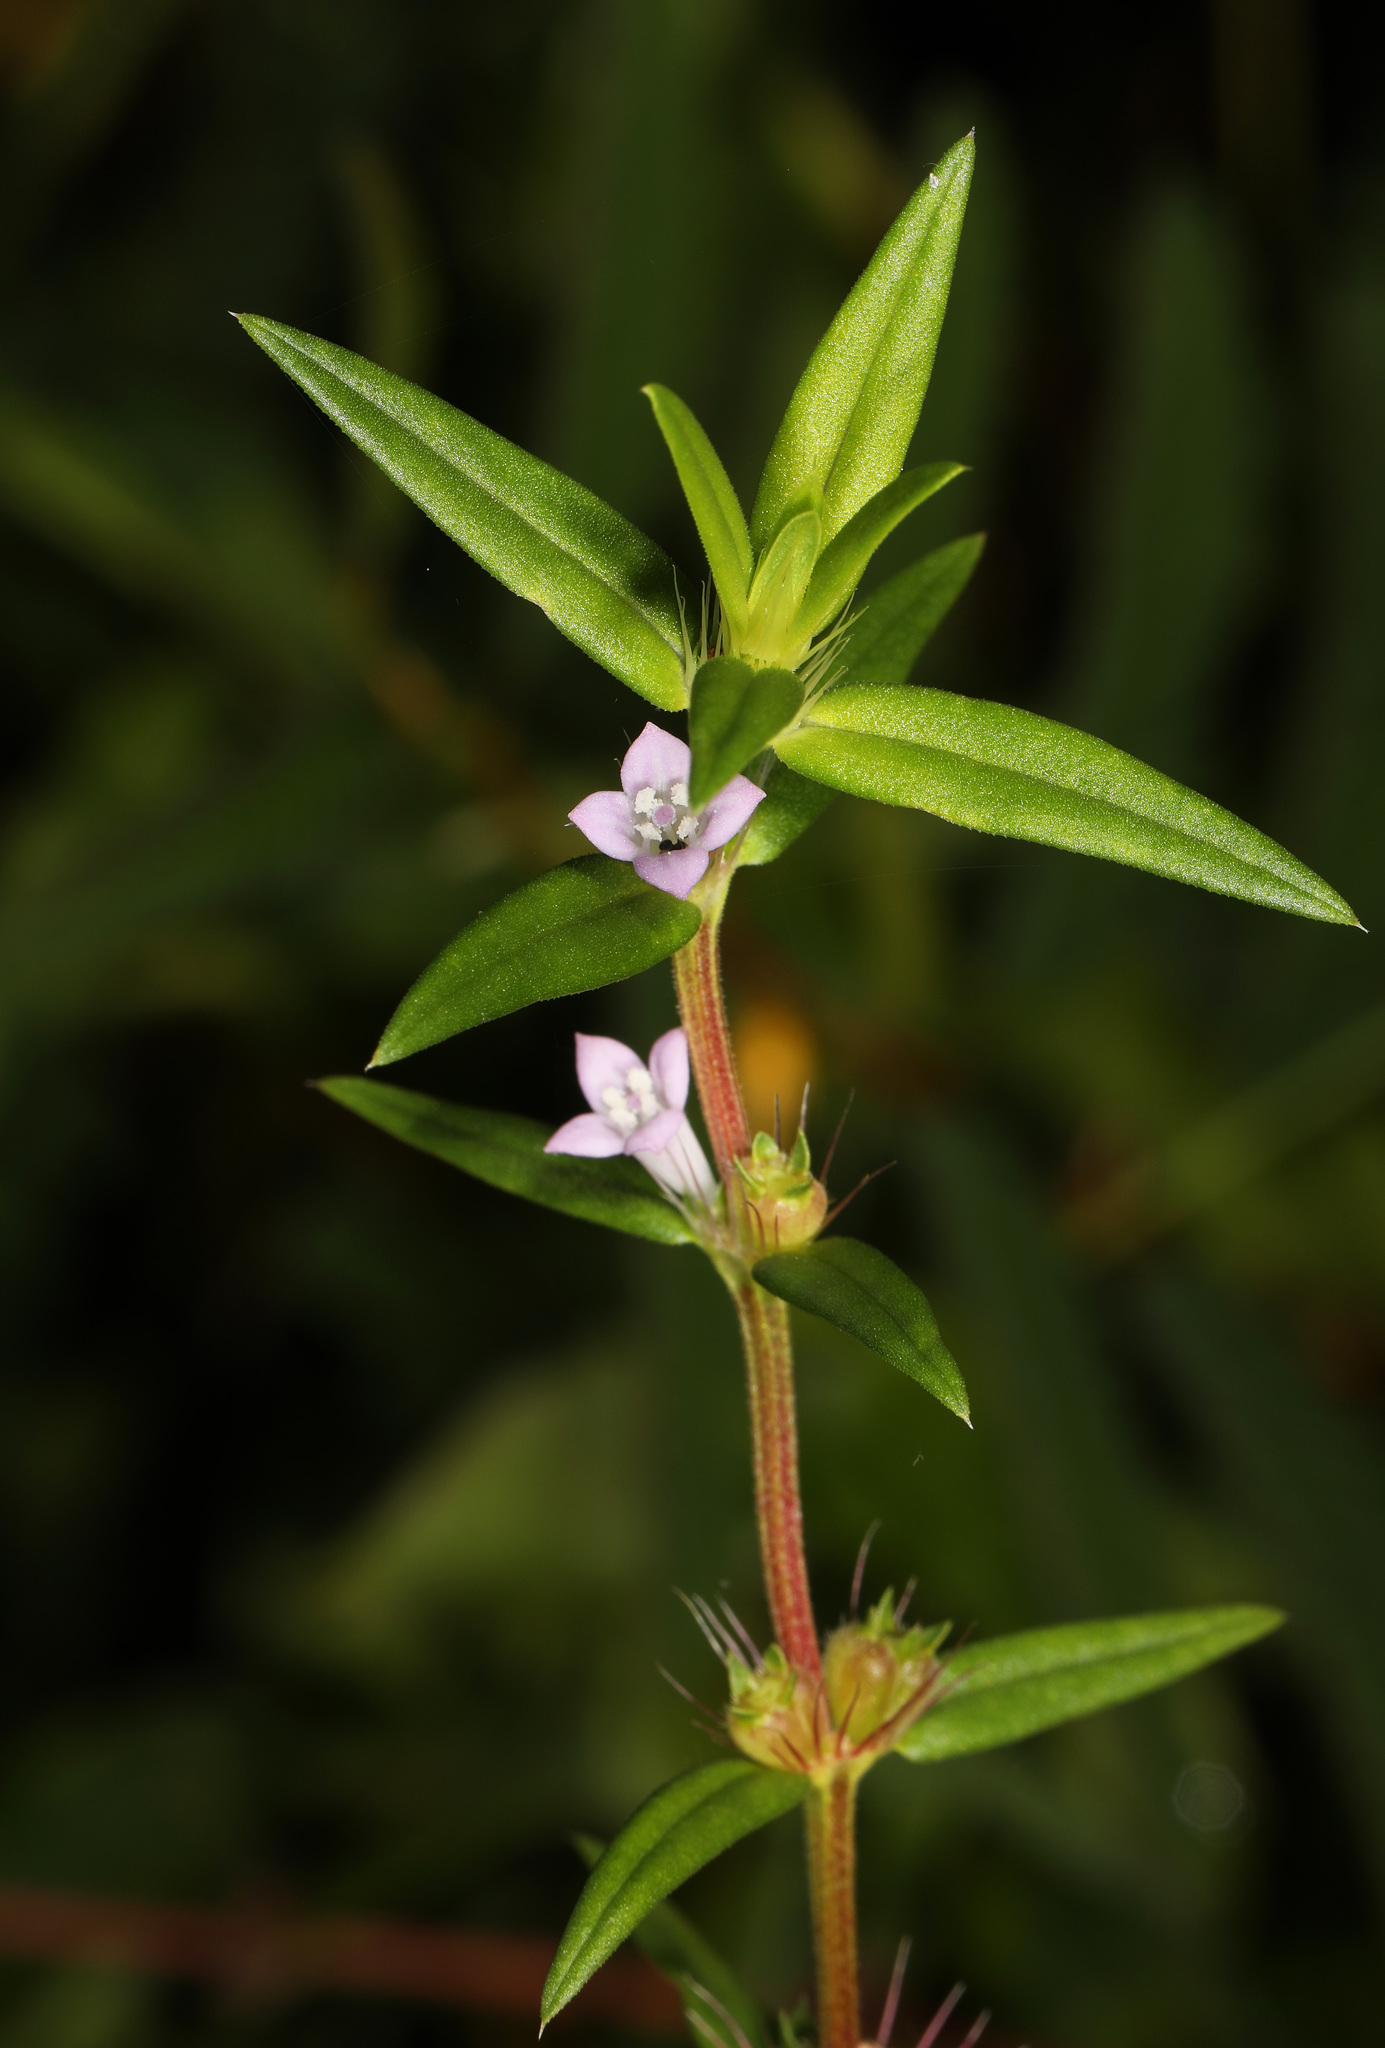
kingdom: Plantae
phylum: Tracheophyta
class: Magnoliopsida
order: Gentianales
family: Rubiaceae
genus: Hexasepalum
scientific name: Hexasepalum teres
